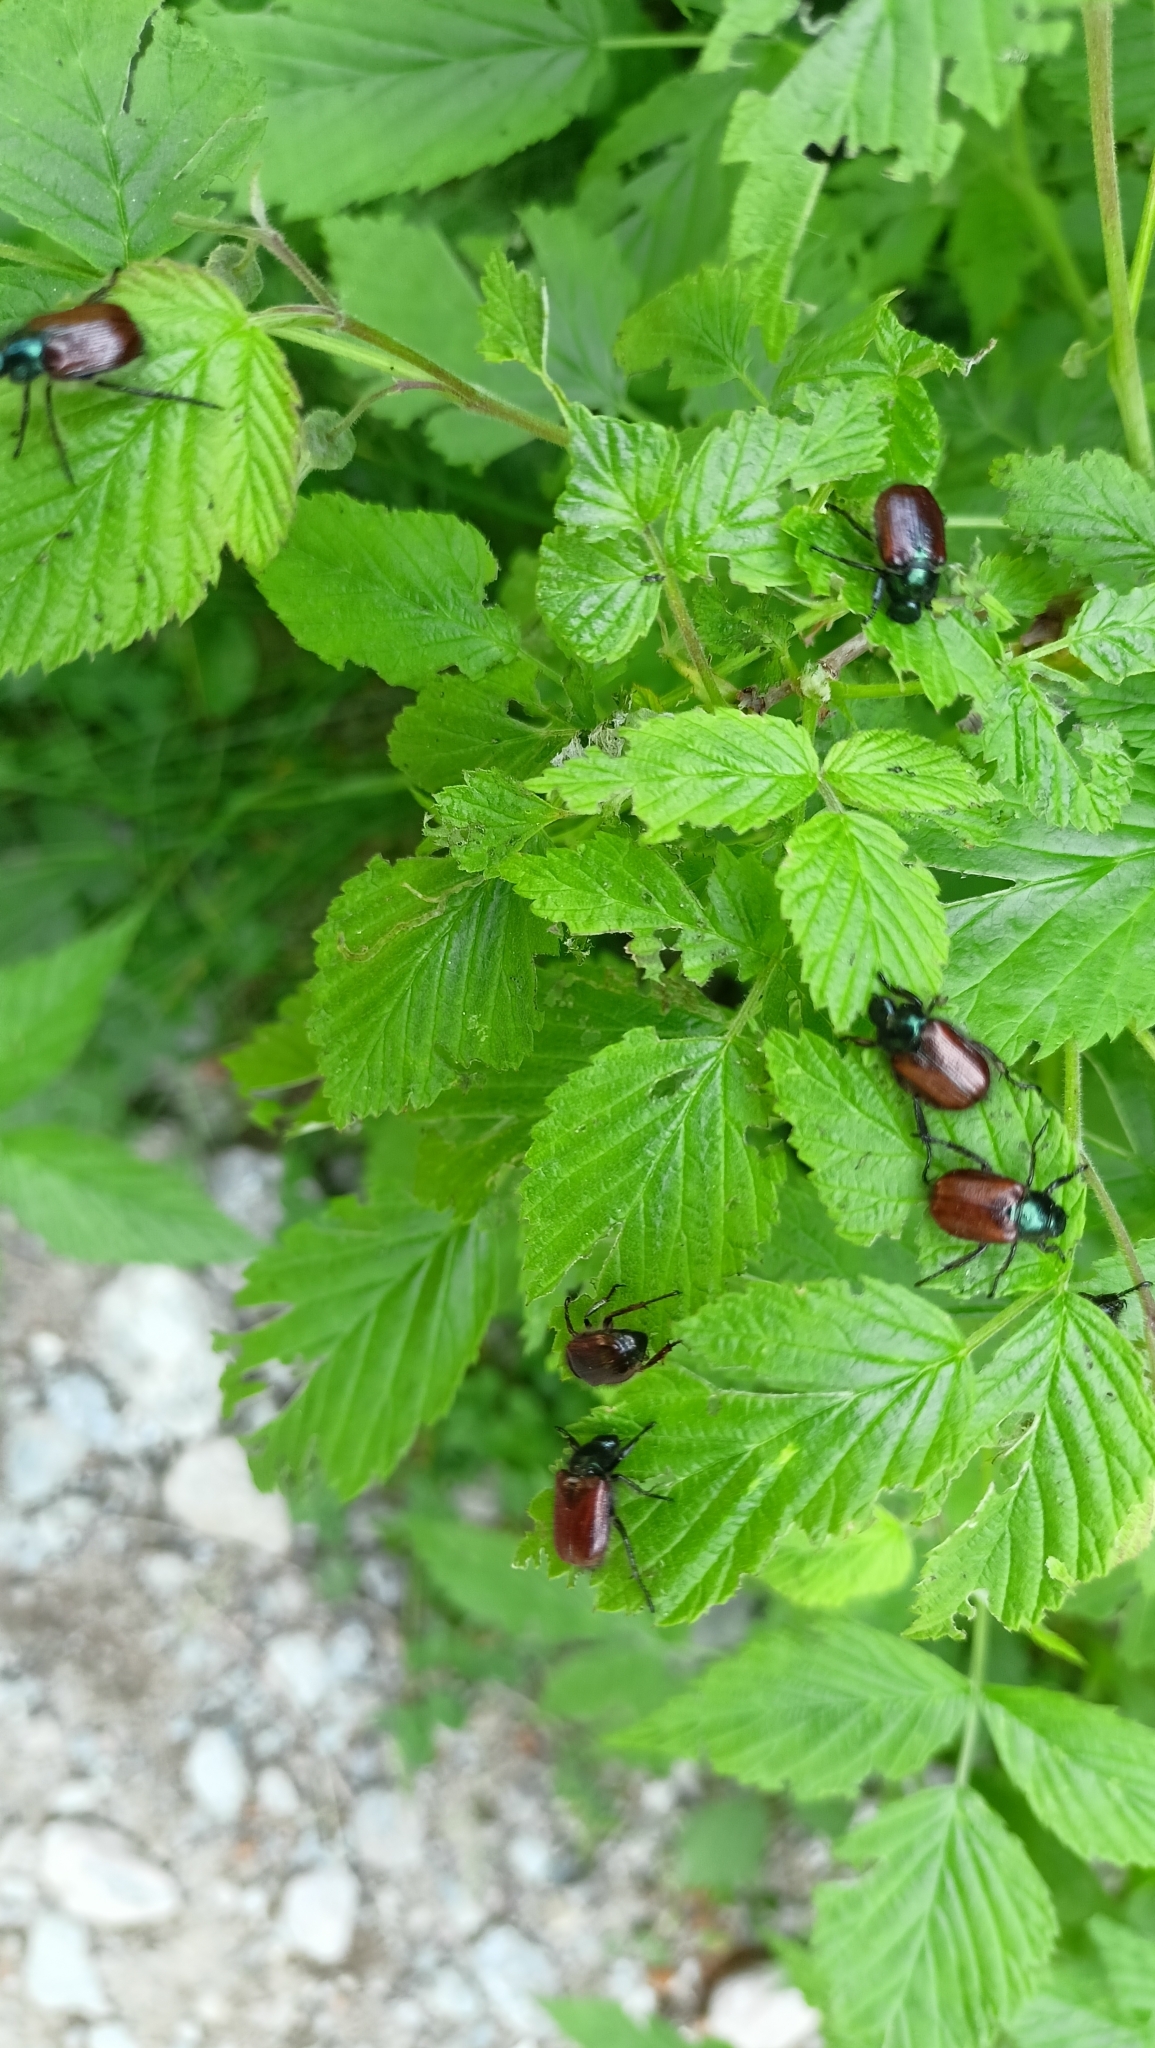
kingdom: Animalia
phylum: Arthropoda
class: Insecta
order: Coleoptera
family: Scarabaeidae
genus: Phyllopertha
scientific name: Phyllopertha horticola
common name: Garden chafer
